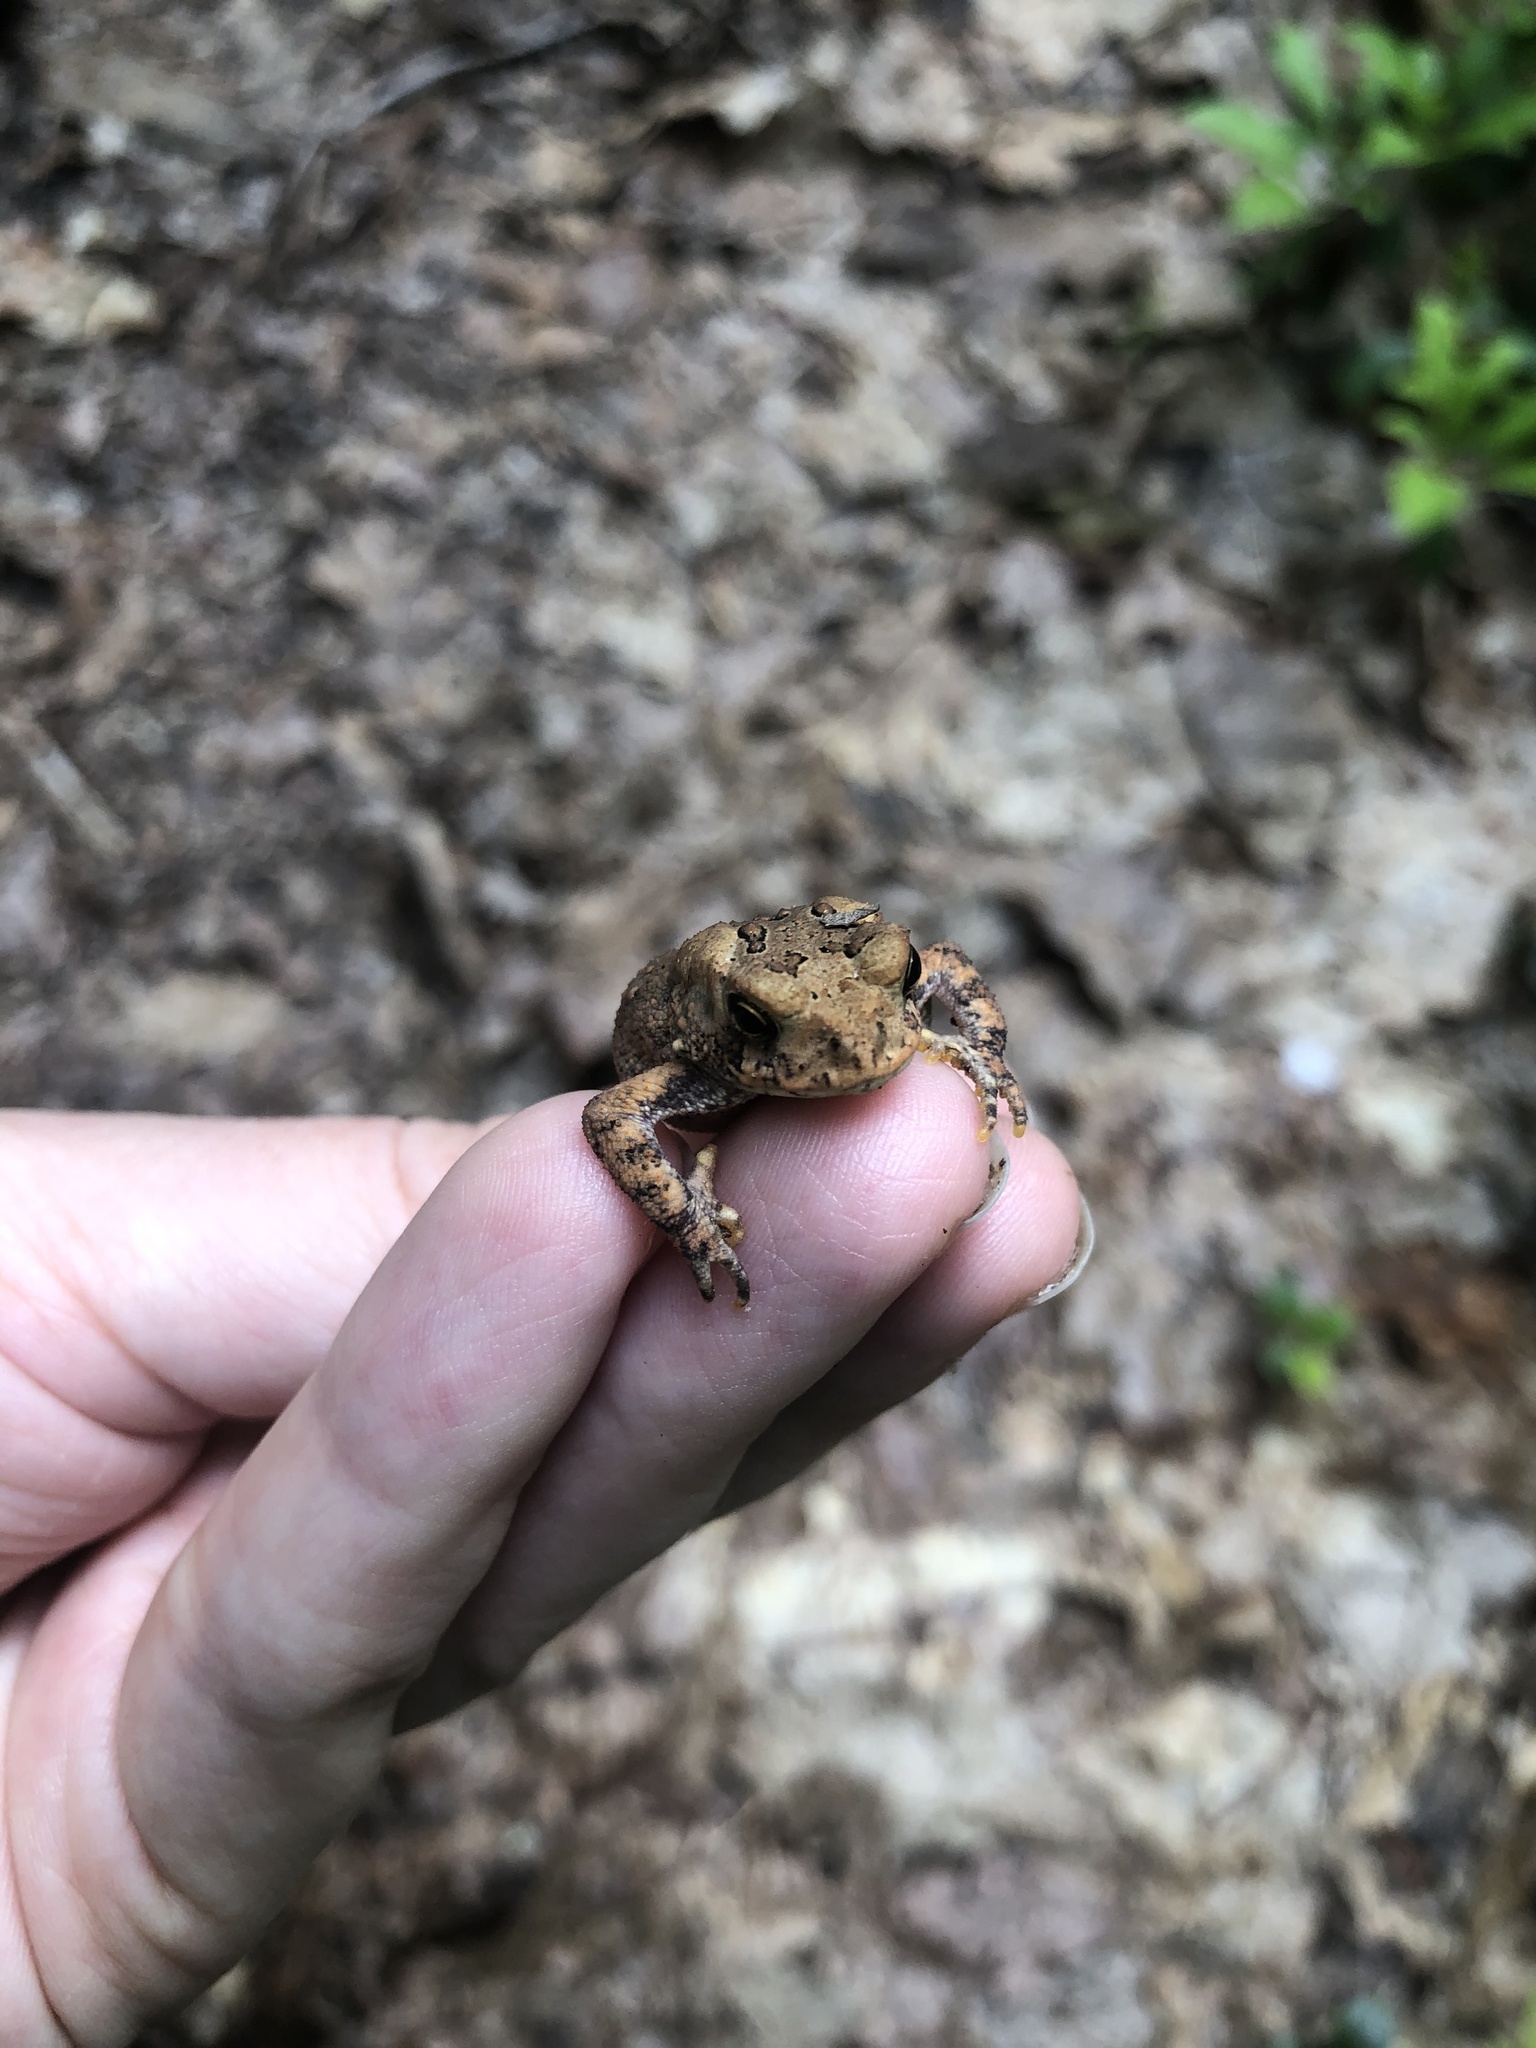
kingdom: Animalia
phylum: Chordata
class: Amphibia
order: Anura
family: Bufonidae
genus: Anaxyrus
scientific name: Anaxyrus americanus
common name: American toad
